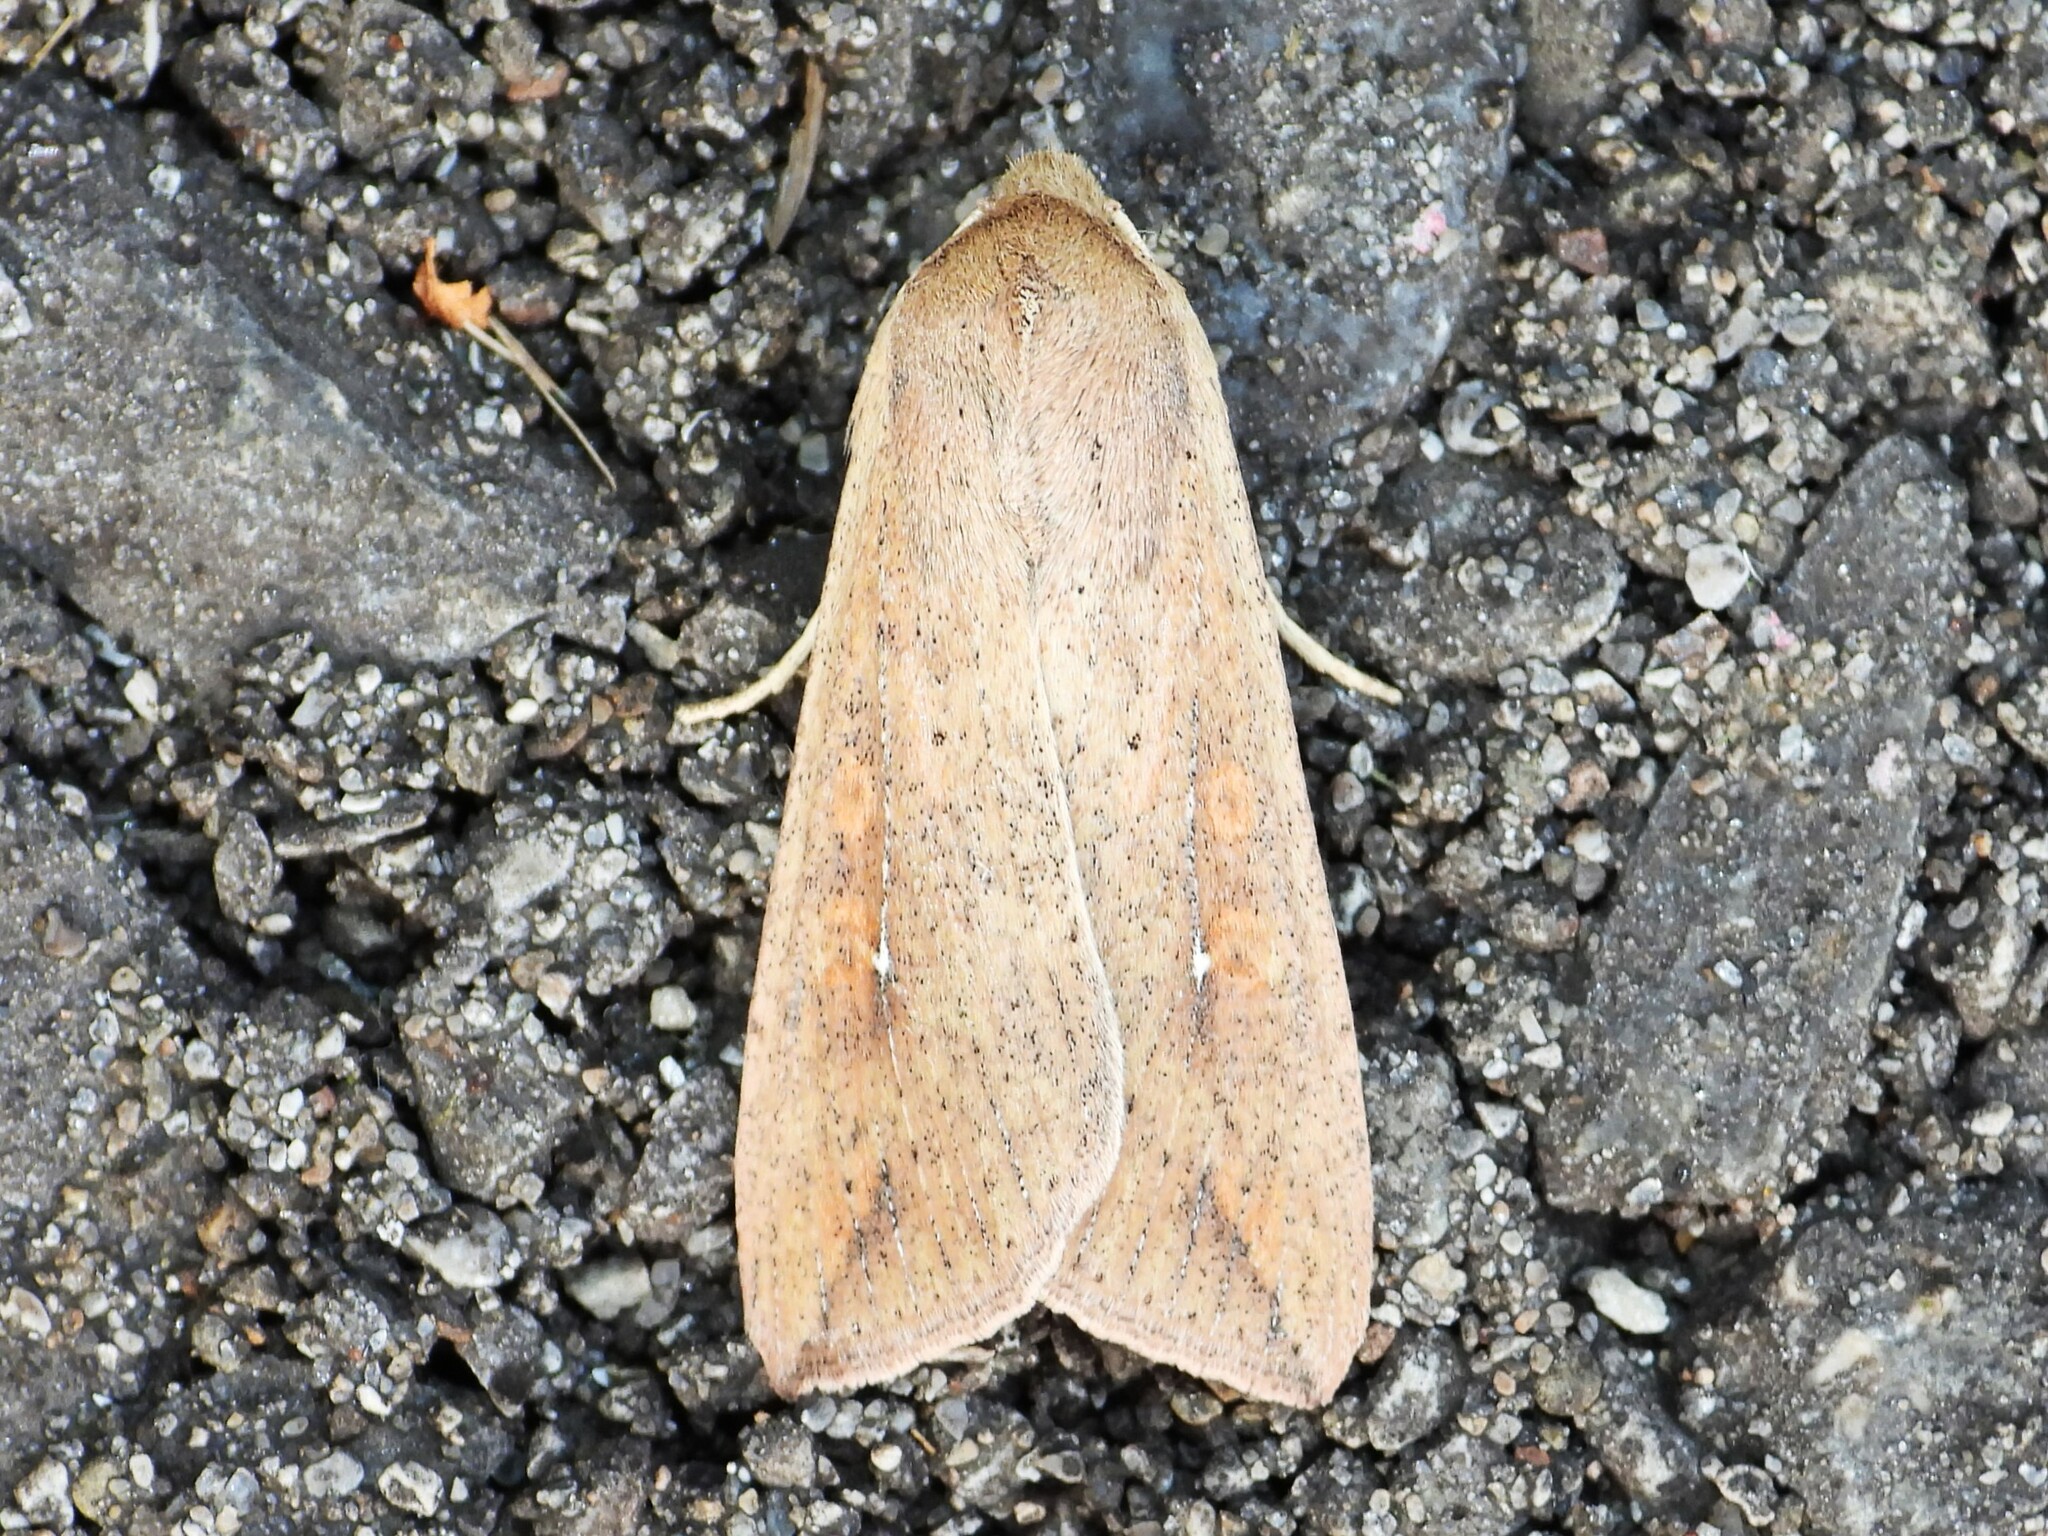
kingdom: Animalia
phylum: Arthropoda
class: Insecta
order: Lepidoptera
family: Noctuidae
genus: Mythimna
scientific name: Mythimna unipuncta
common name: White-speck
